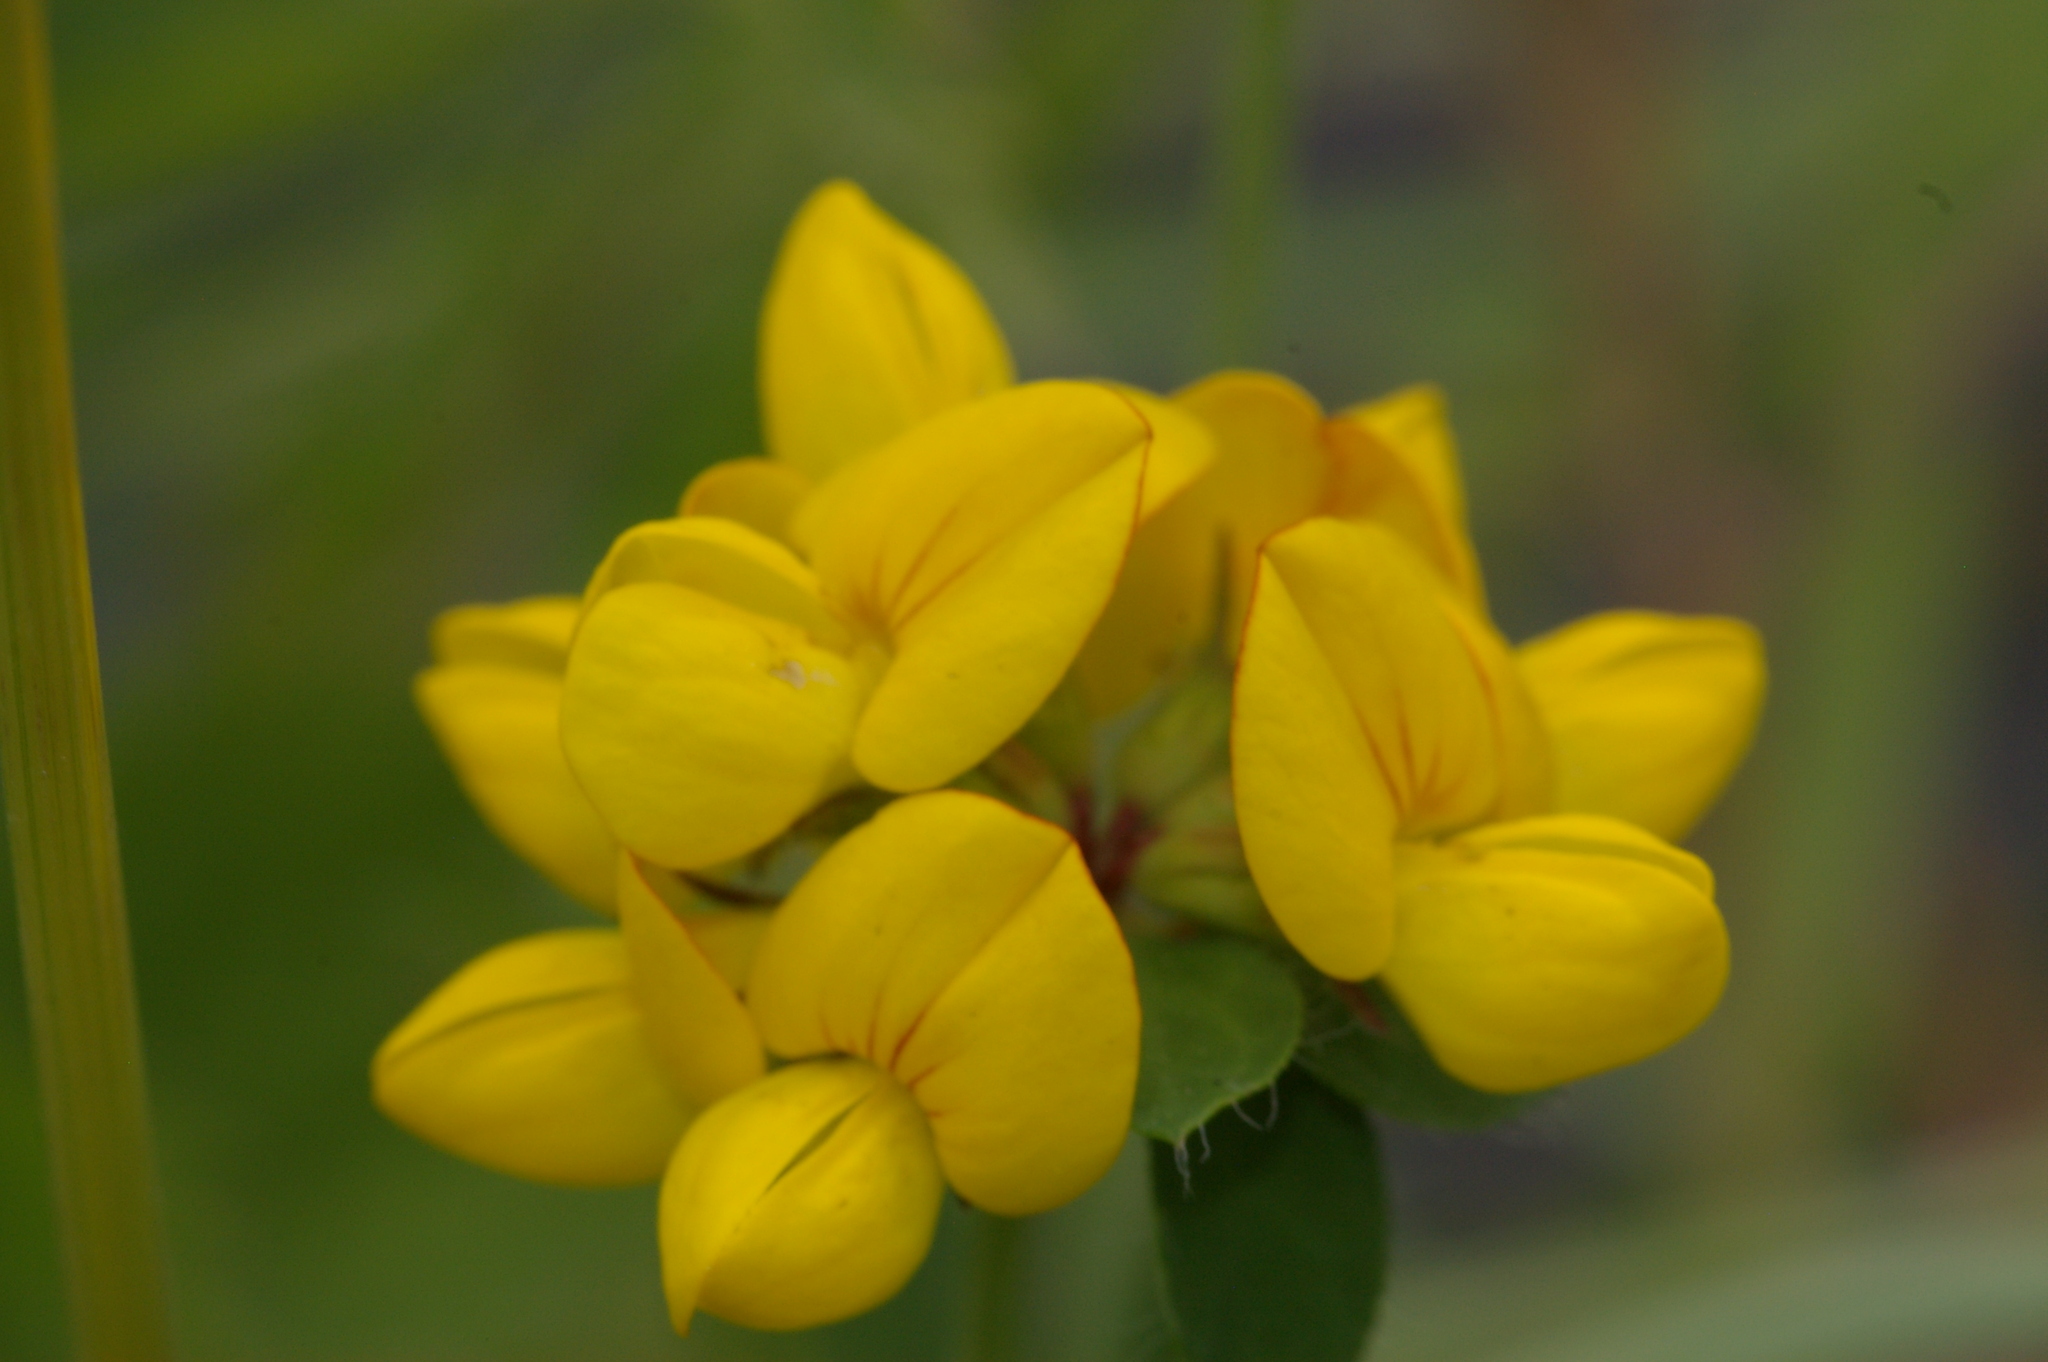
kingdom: Plantae
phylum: Tracheophyta
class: Magnoliopsida
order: Fabales
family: Fabaceae
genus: Lotus
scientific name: Lotus
